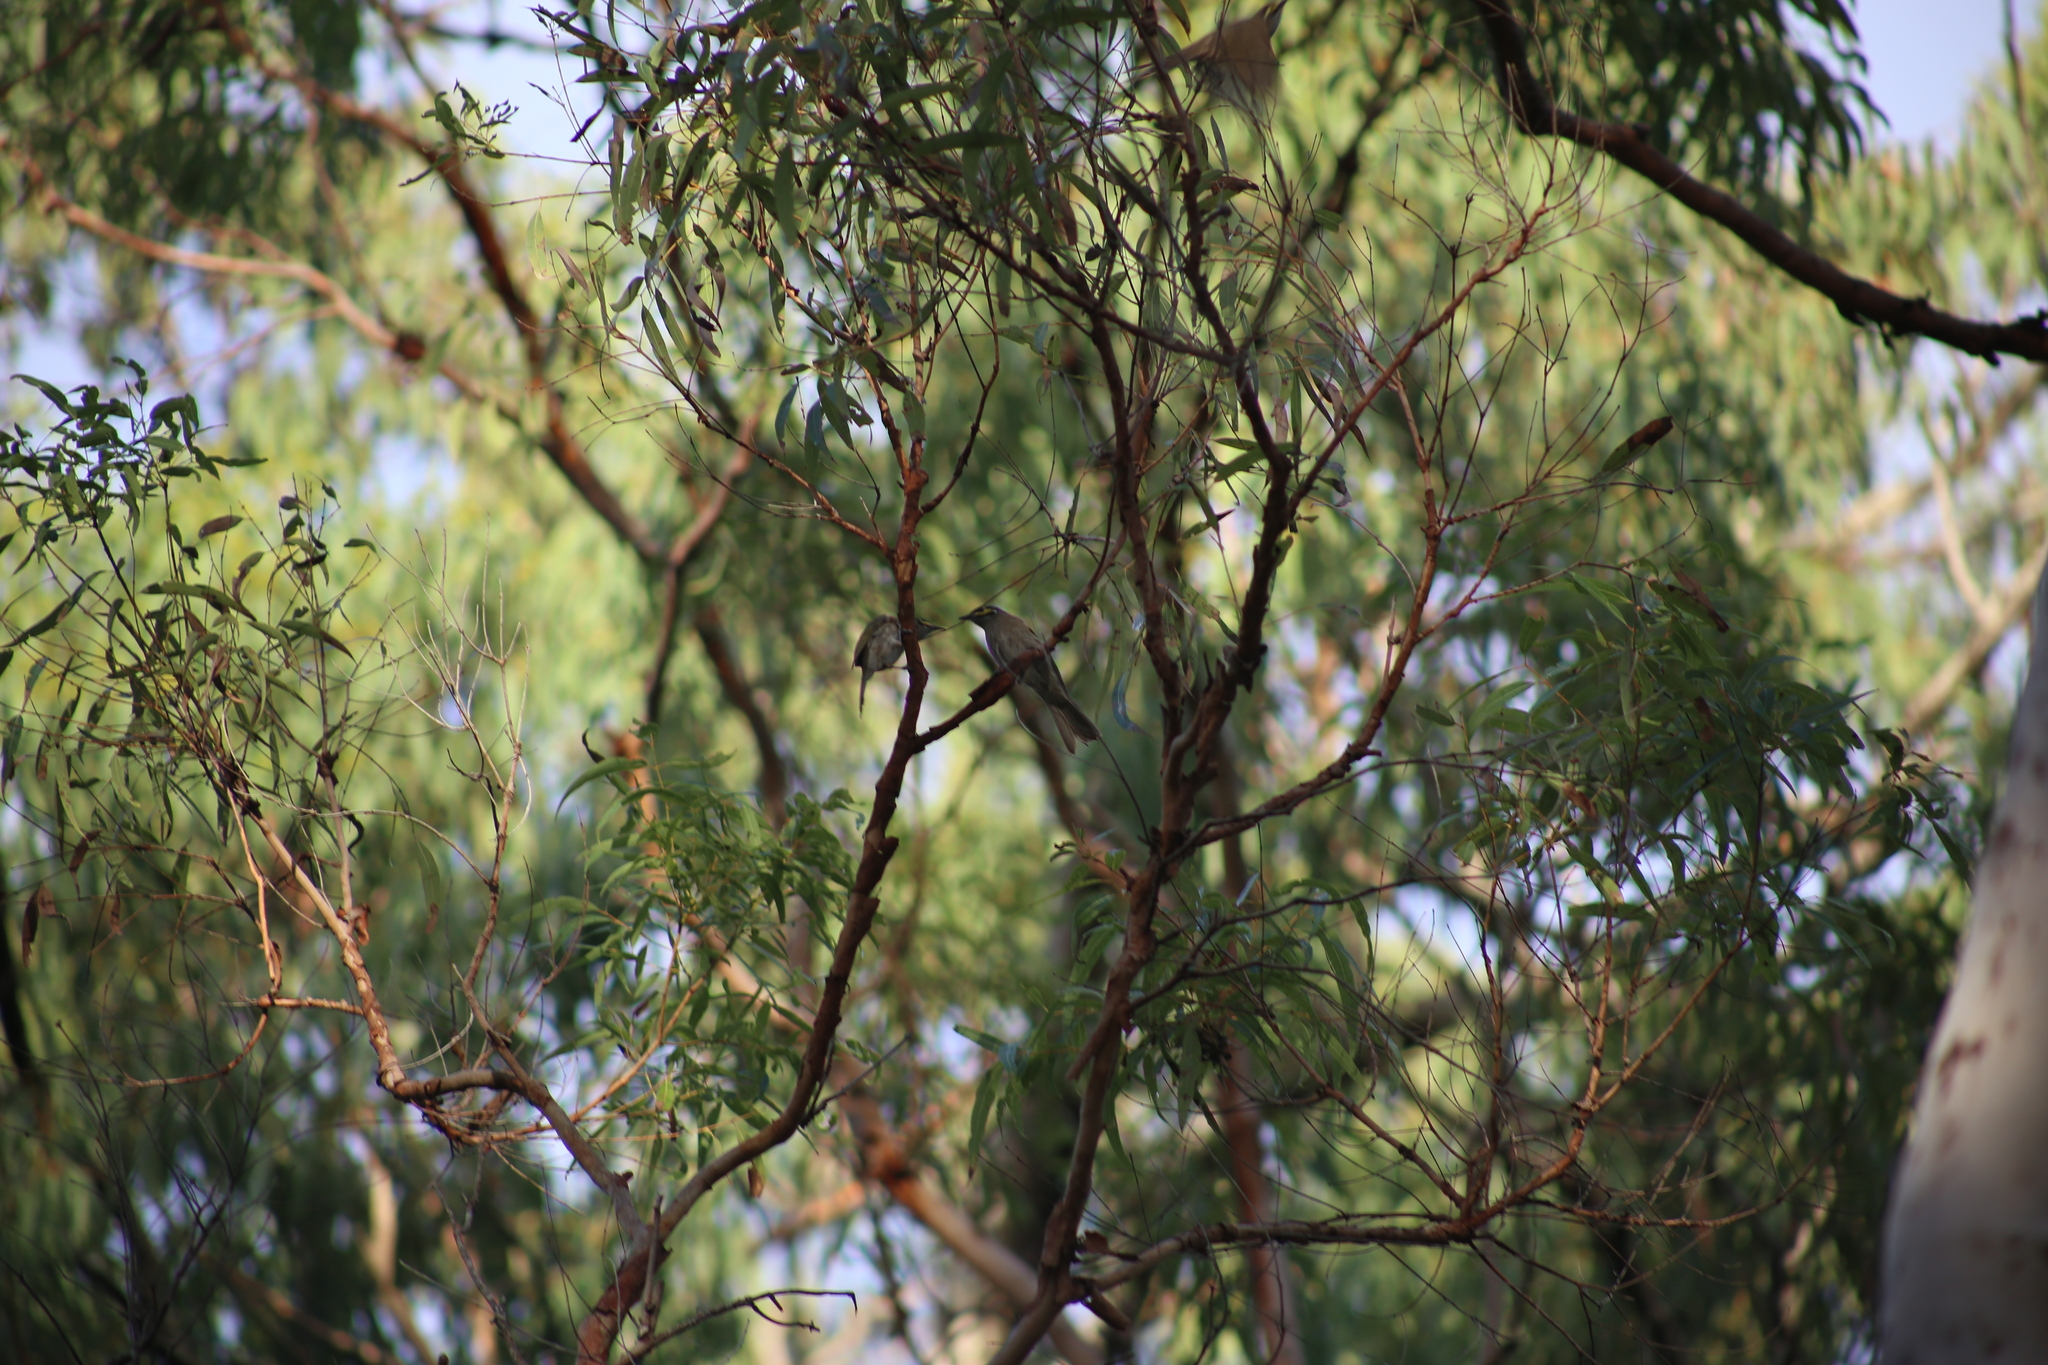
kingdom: Animalia
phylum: Chordata
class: Aves
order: Passeriformes
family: Meliphagidae
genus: Caligavis
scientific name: Caligavis chrysops
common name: Yellow-faced honeyeater
